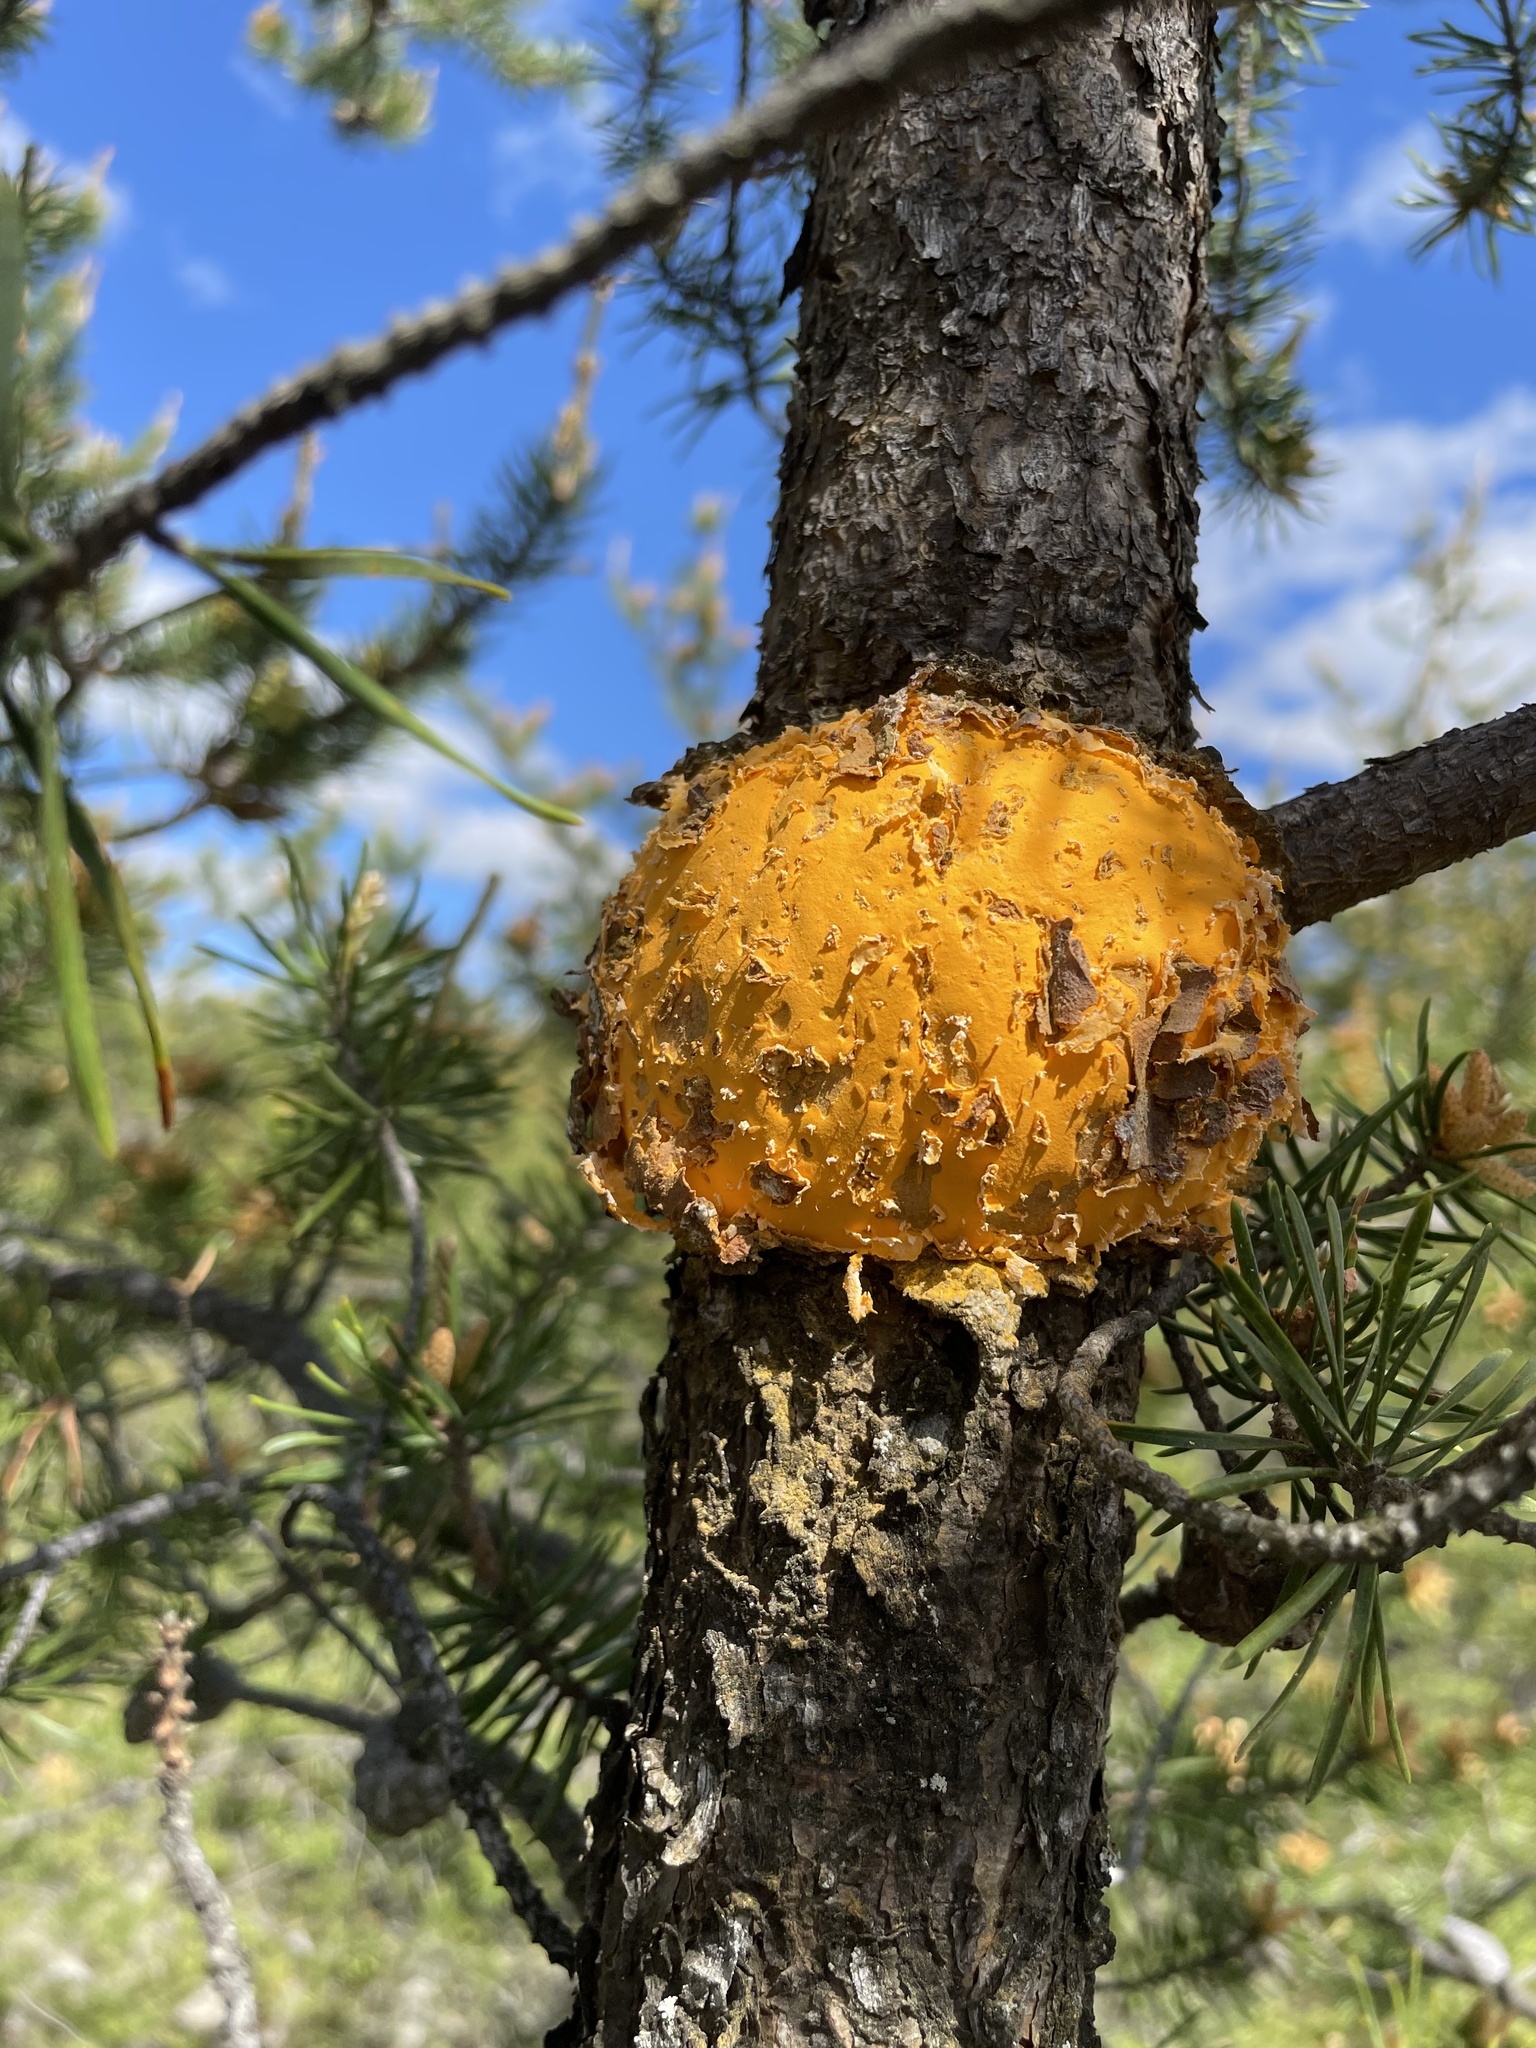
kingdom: Fungi
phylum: Basidiomycota
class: Pucciniomycetes
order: Pucciniales
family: Cronartiaceae
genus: Cronartium
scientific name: Cronartium quercuum
